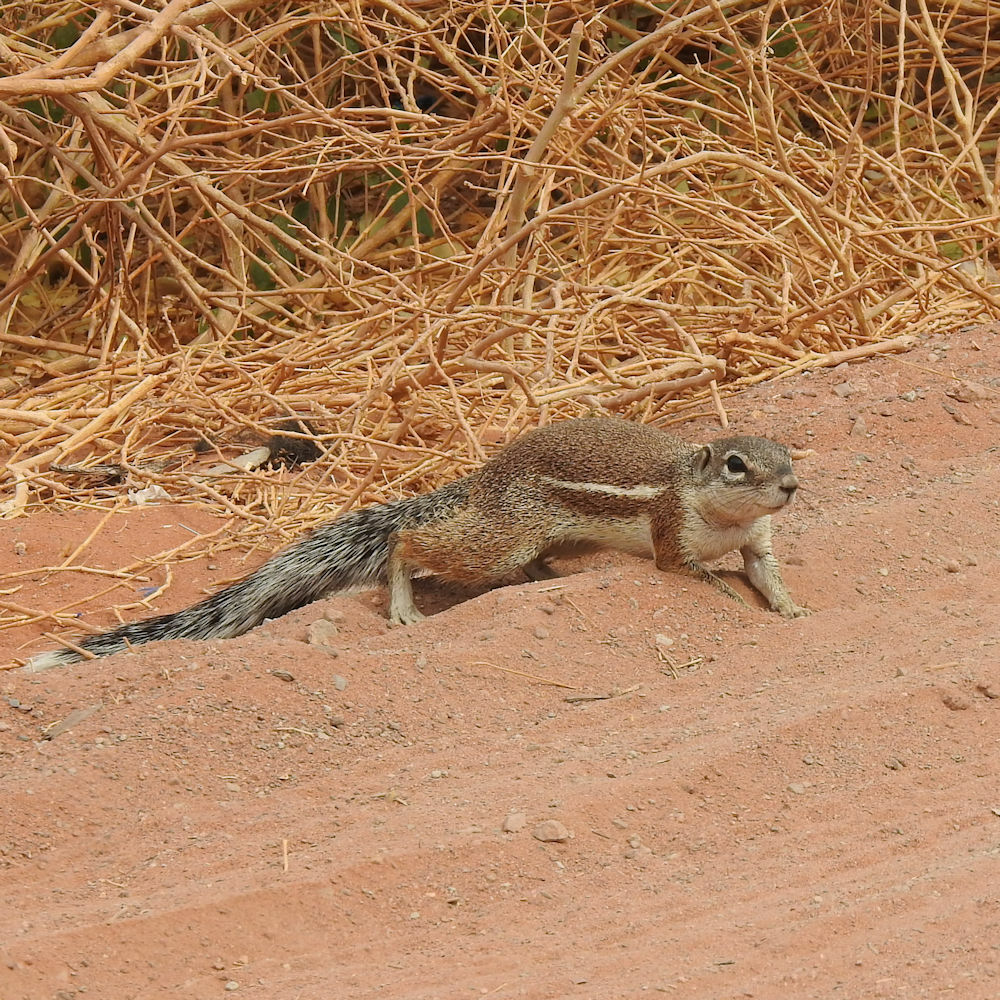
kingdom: Animalia
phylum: Chordata
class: Mammalia
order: Rodentia
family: Sciuridae
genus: Xerus
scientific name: Xerus inauris
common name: South african ground squirrel
